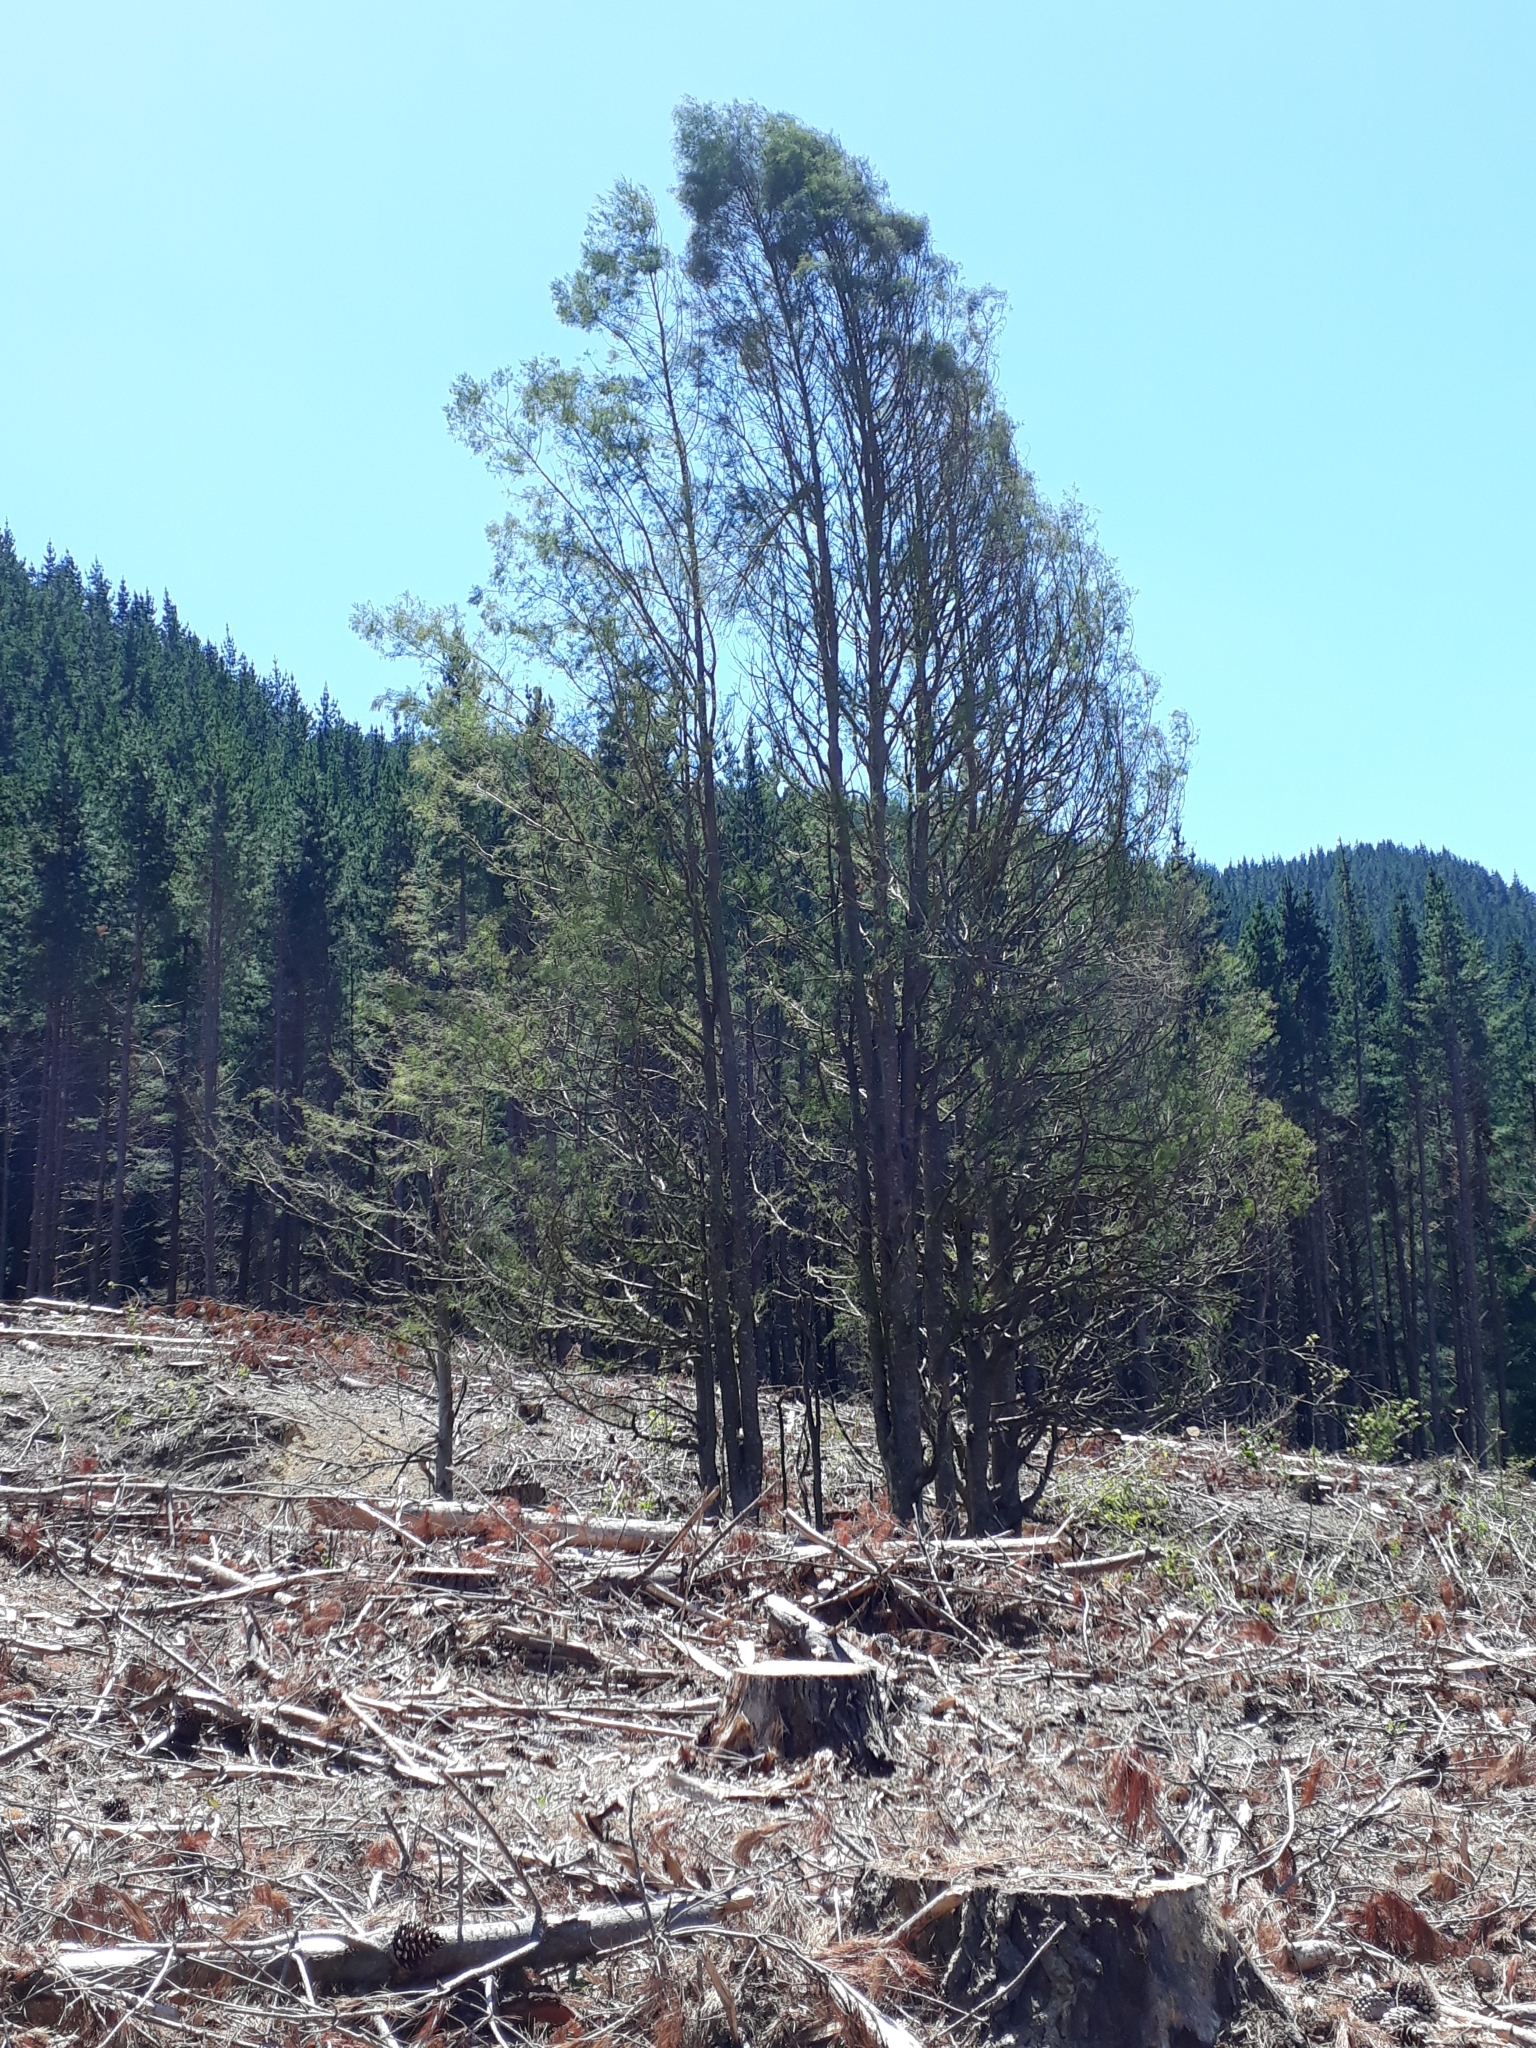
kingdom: Plantae
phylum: Tracheophyta
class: Pinopsida
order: Pinales
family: Podocarpaceae
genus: Dacrycarpus
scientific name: Dacrycarpus dacrydioides
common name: White pine
